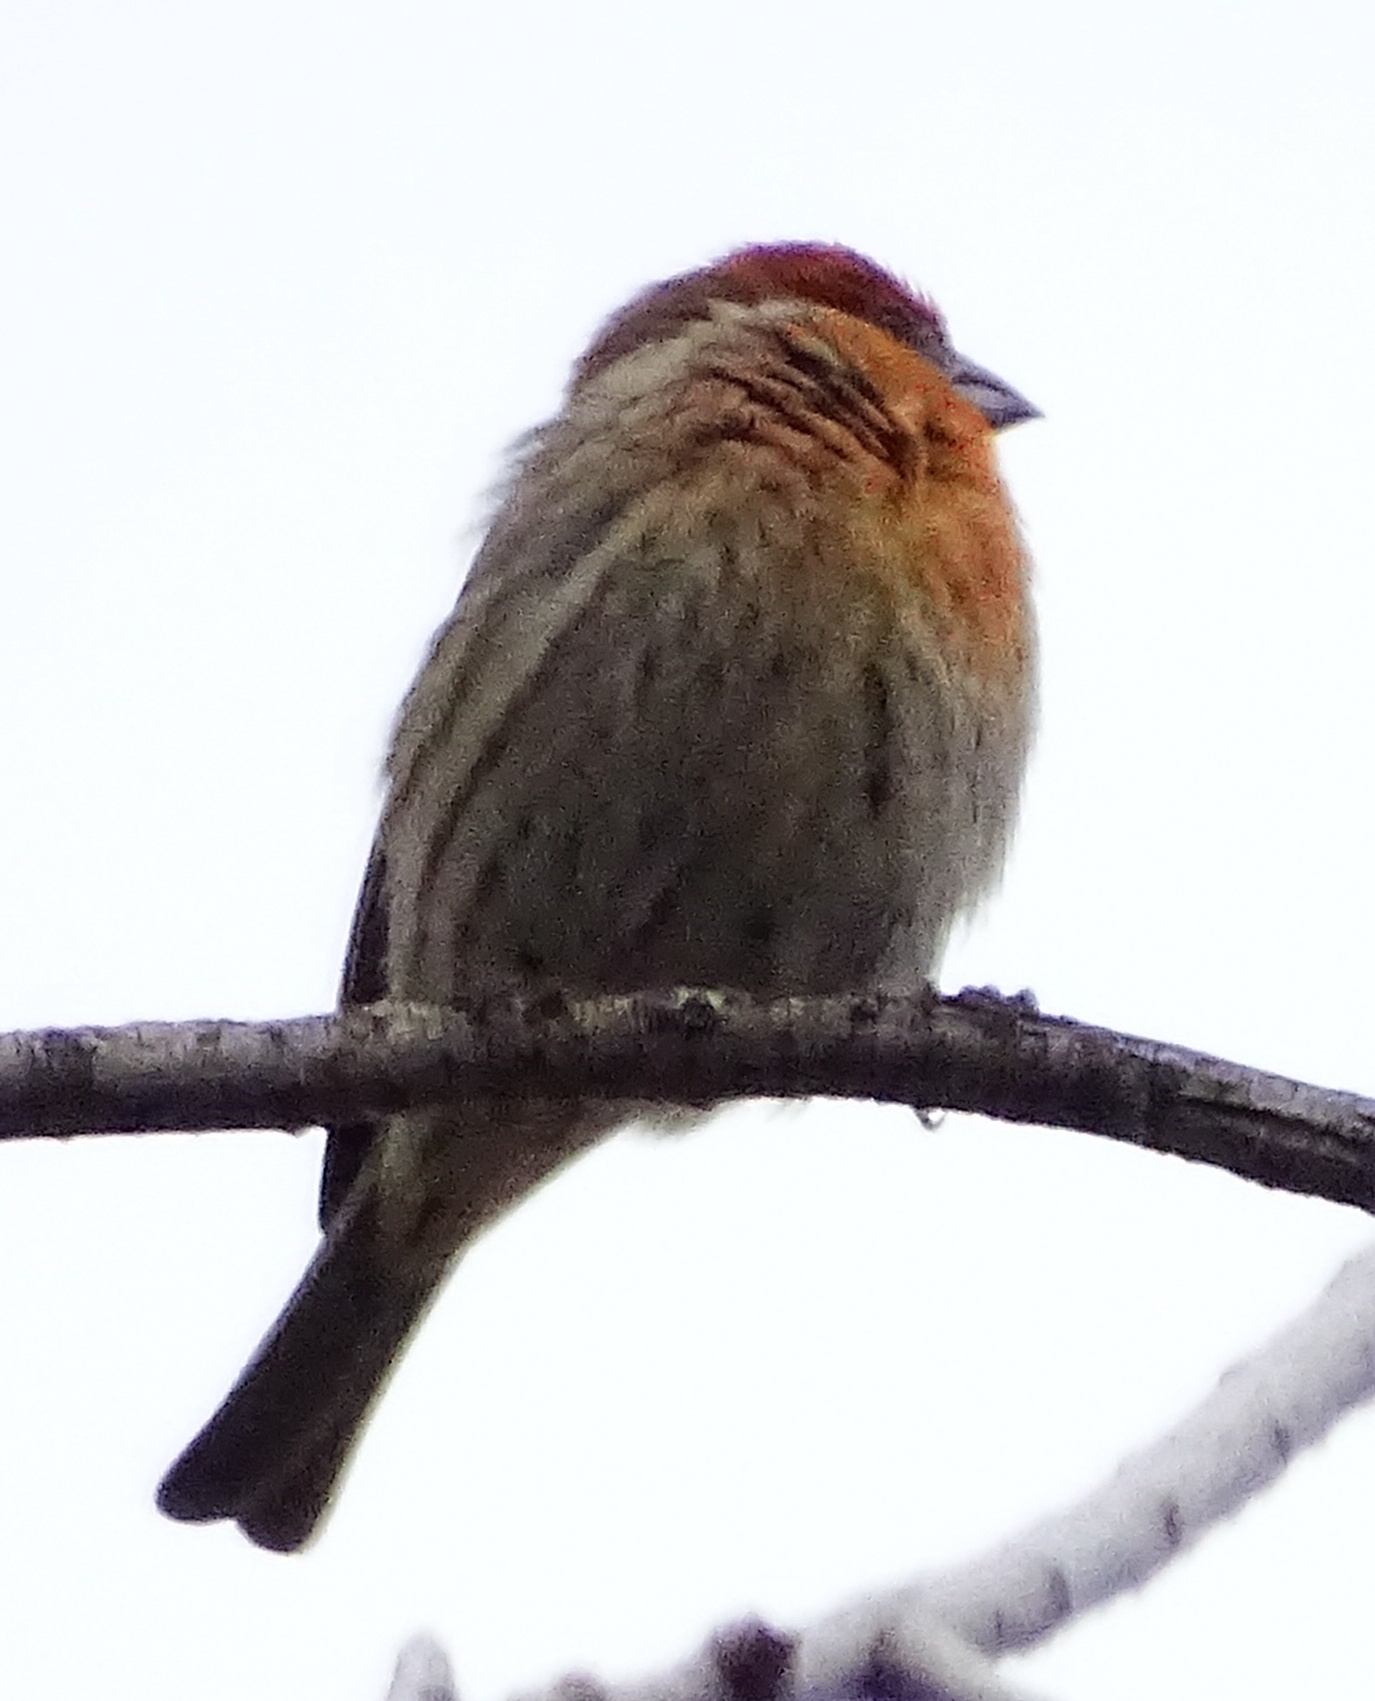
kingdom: Animalia
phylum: Chordata
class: Aves
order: Passeriformes
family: Fringillidae
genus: Haemorhous
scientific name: Haemorhous mexicanus
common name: House finch
